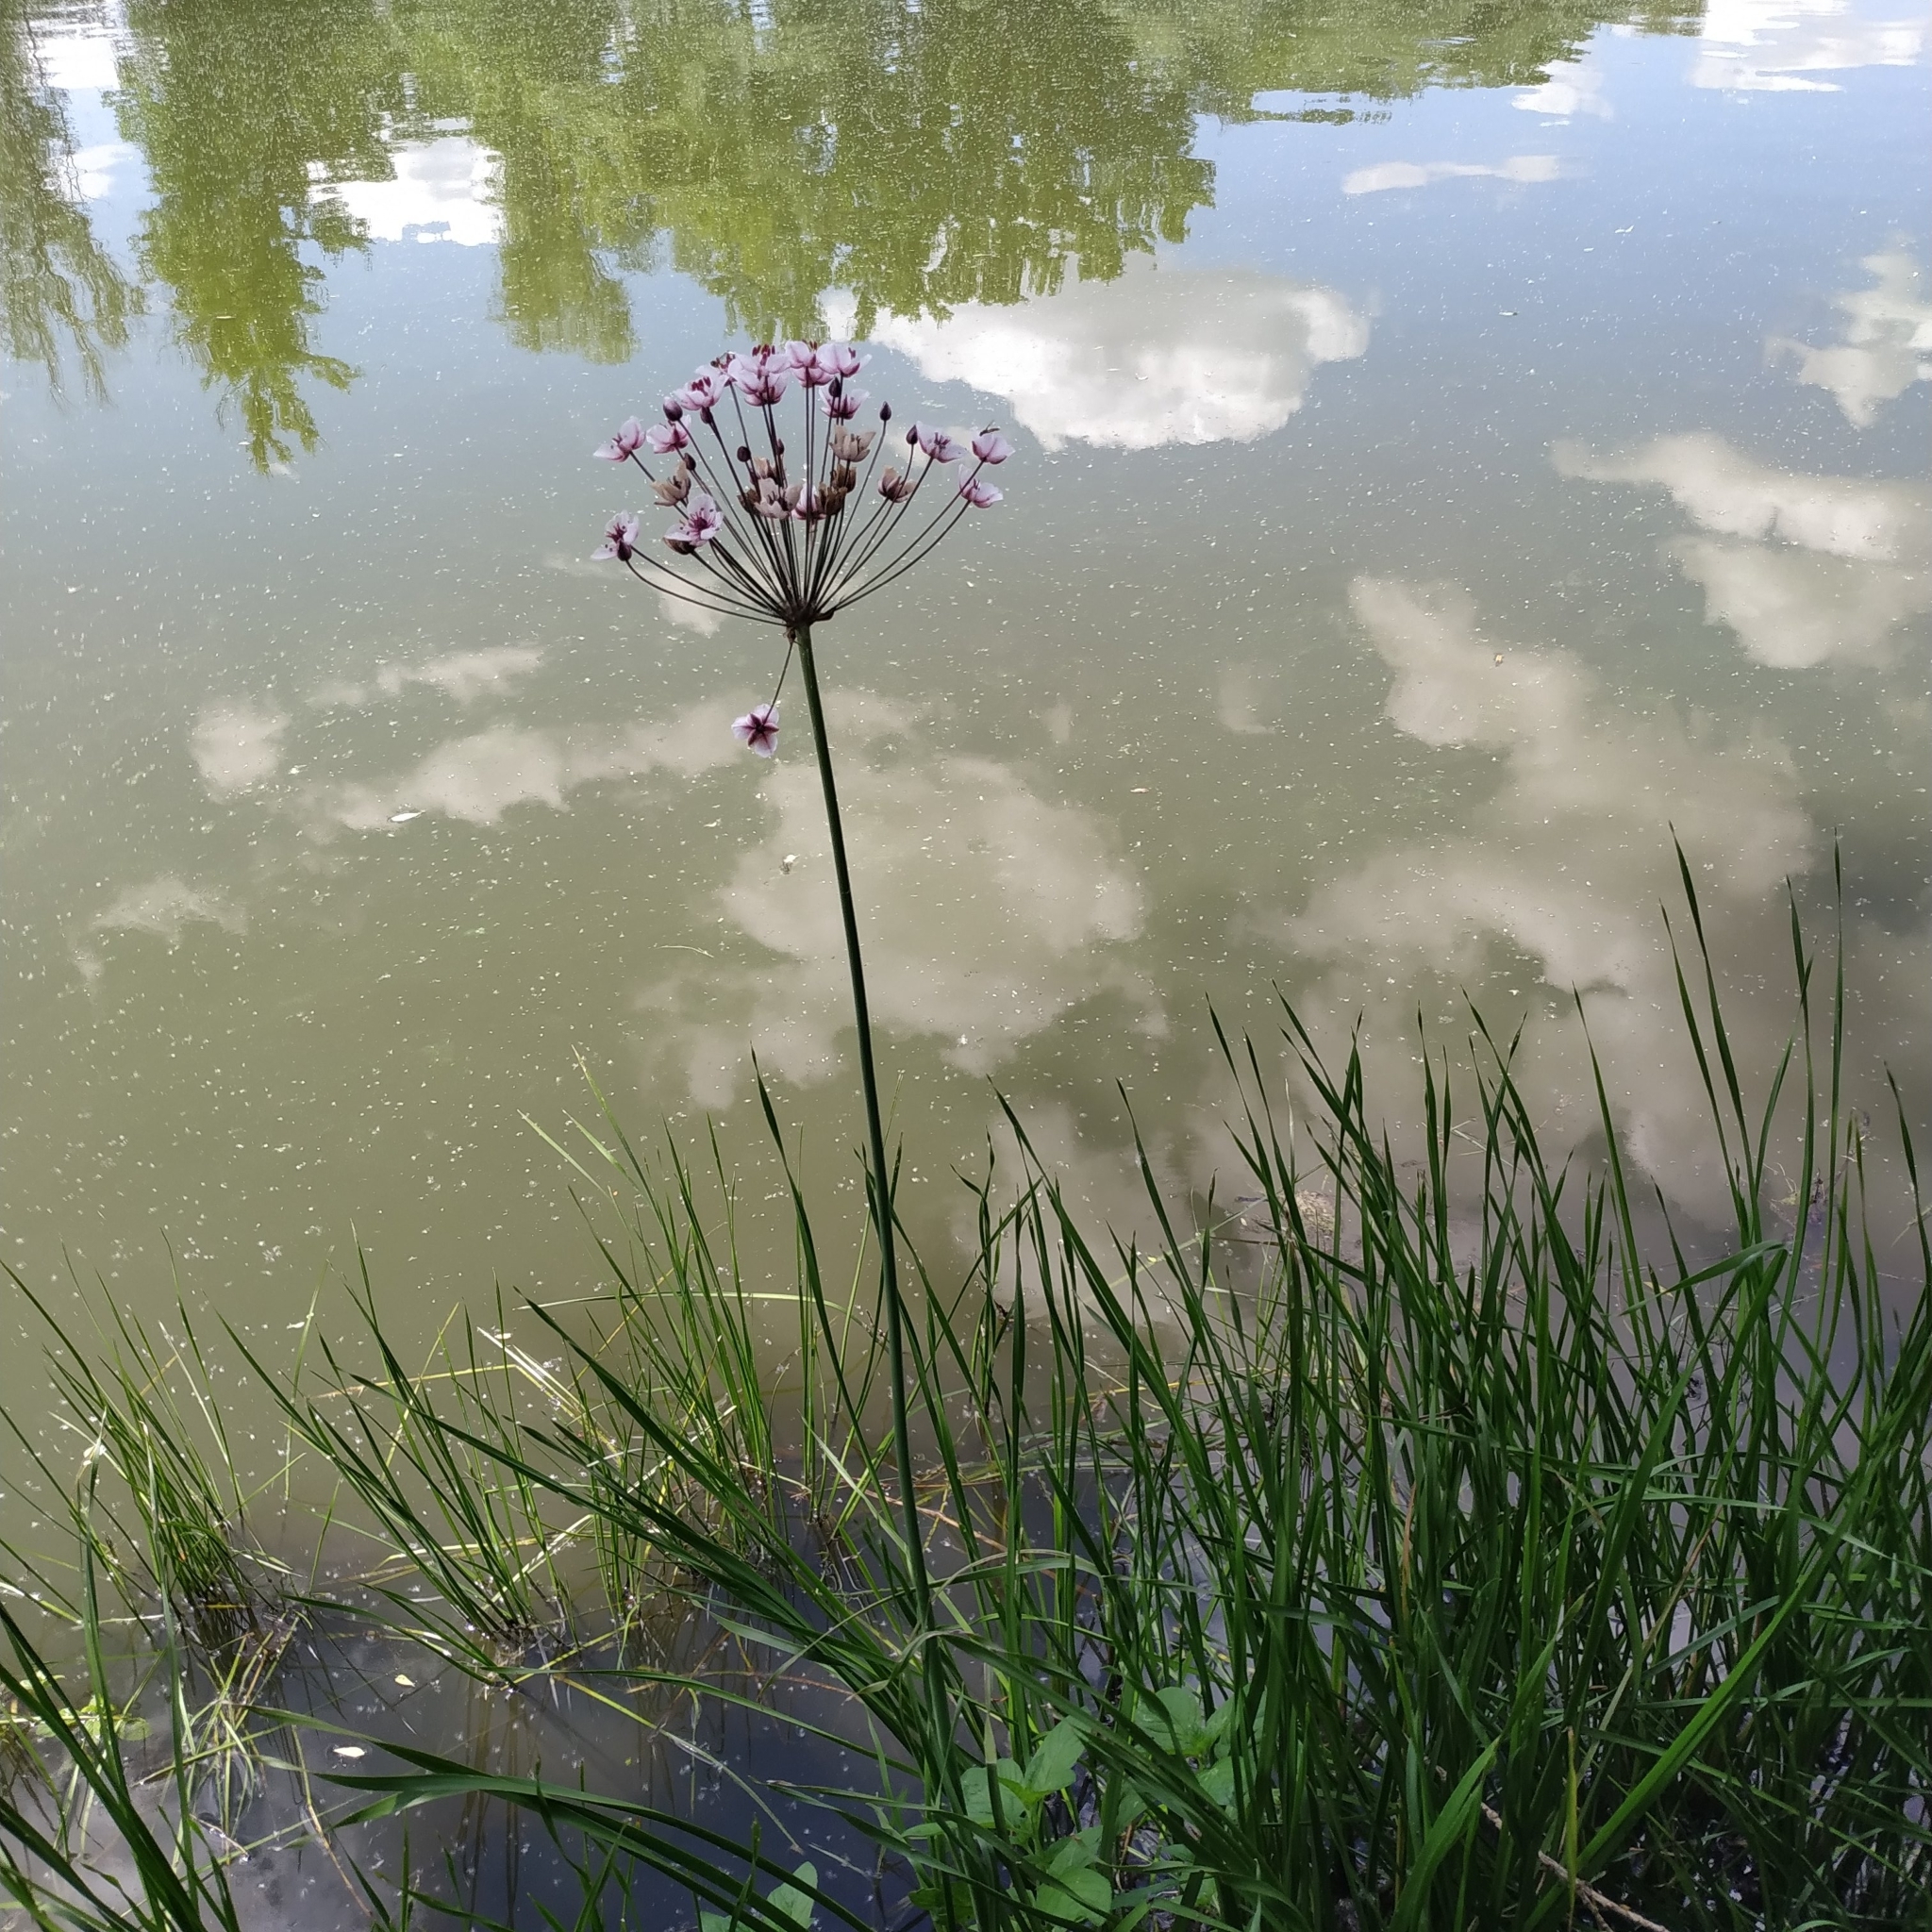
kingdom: Plantae
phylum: Tracheophyta
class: Liliopsida
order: Alismatales
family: Butomaceae
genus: Butomus
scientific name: Butomus umbellatus
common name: Flowering-rush
